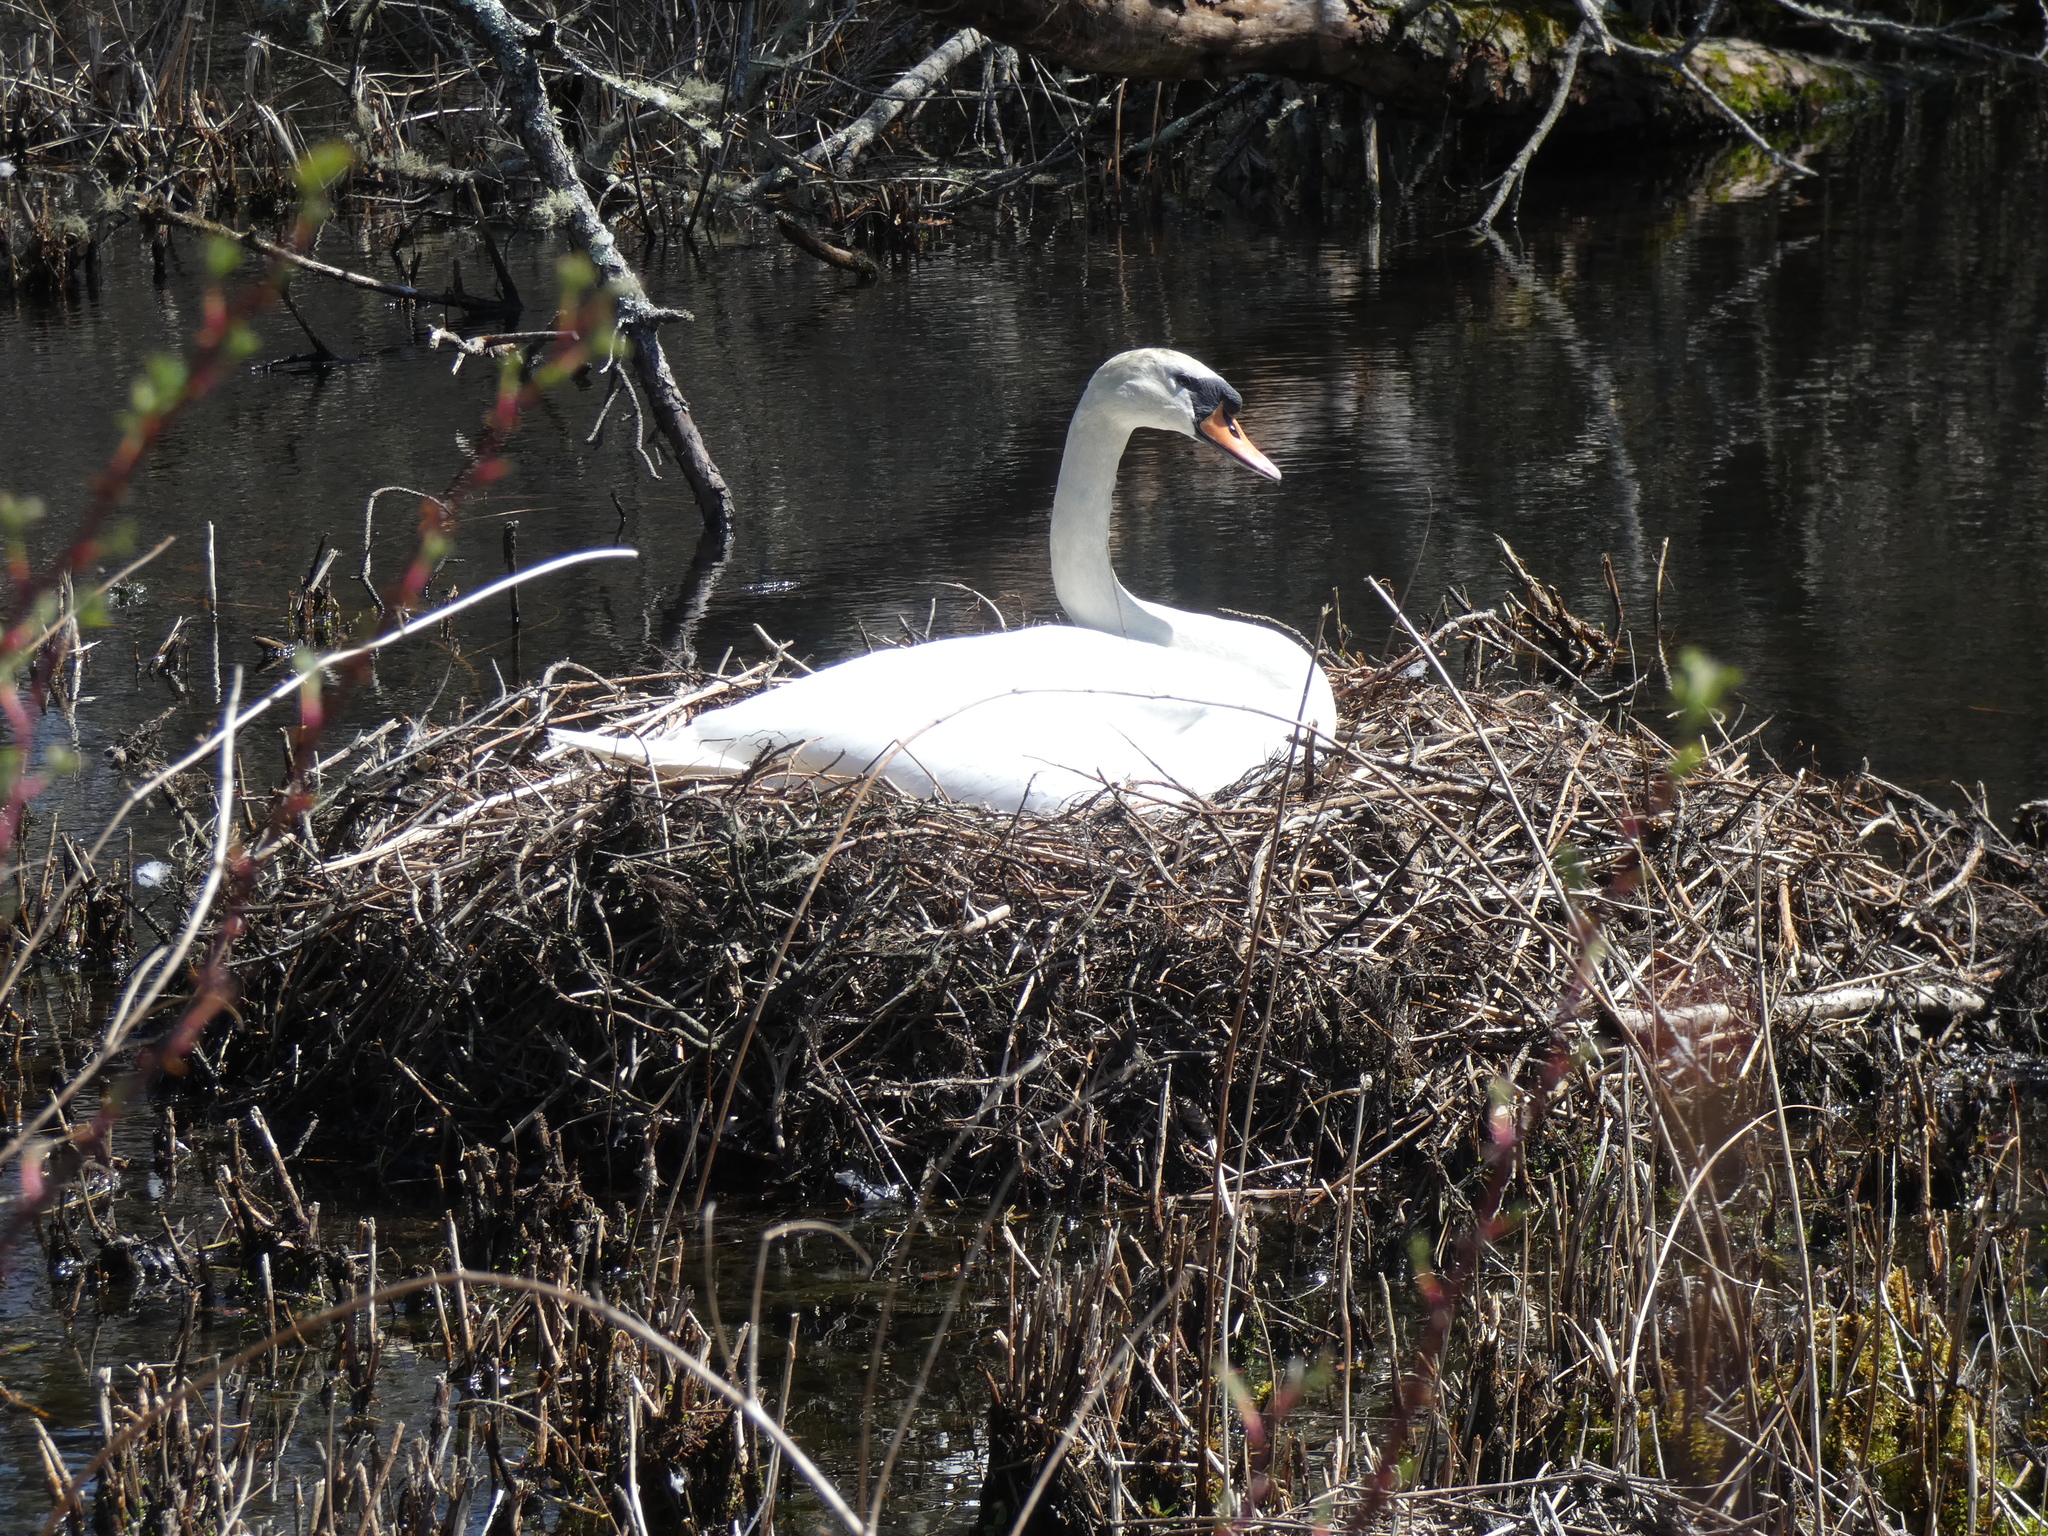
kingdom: Animalia
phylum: Chordata
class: Aves
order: Anseriformes
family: Anatidae
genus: Cygnus
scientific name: Cygnus olor
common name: Mute swan
